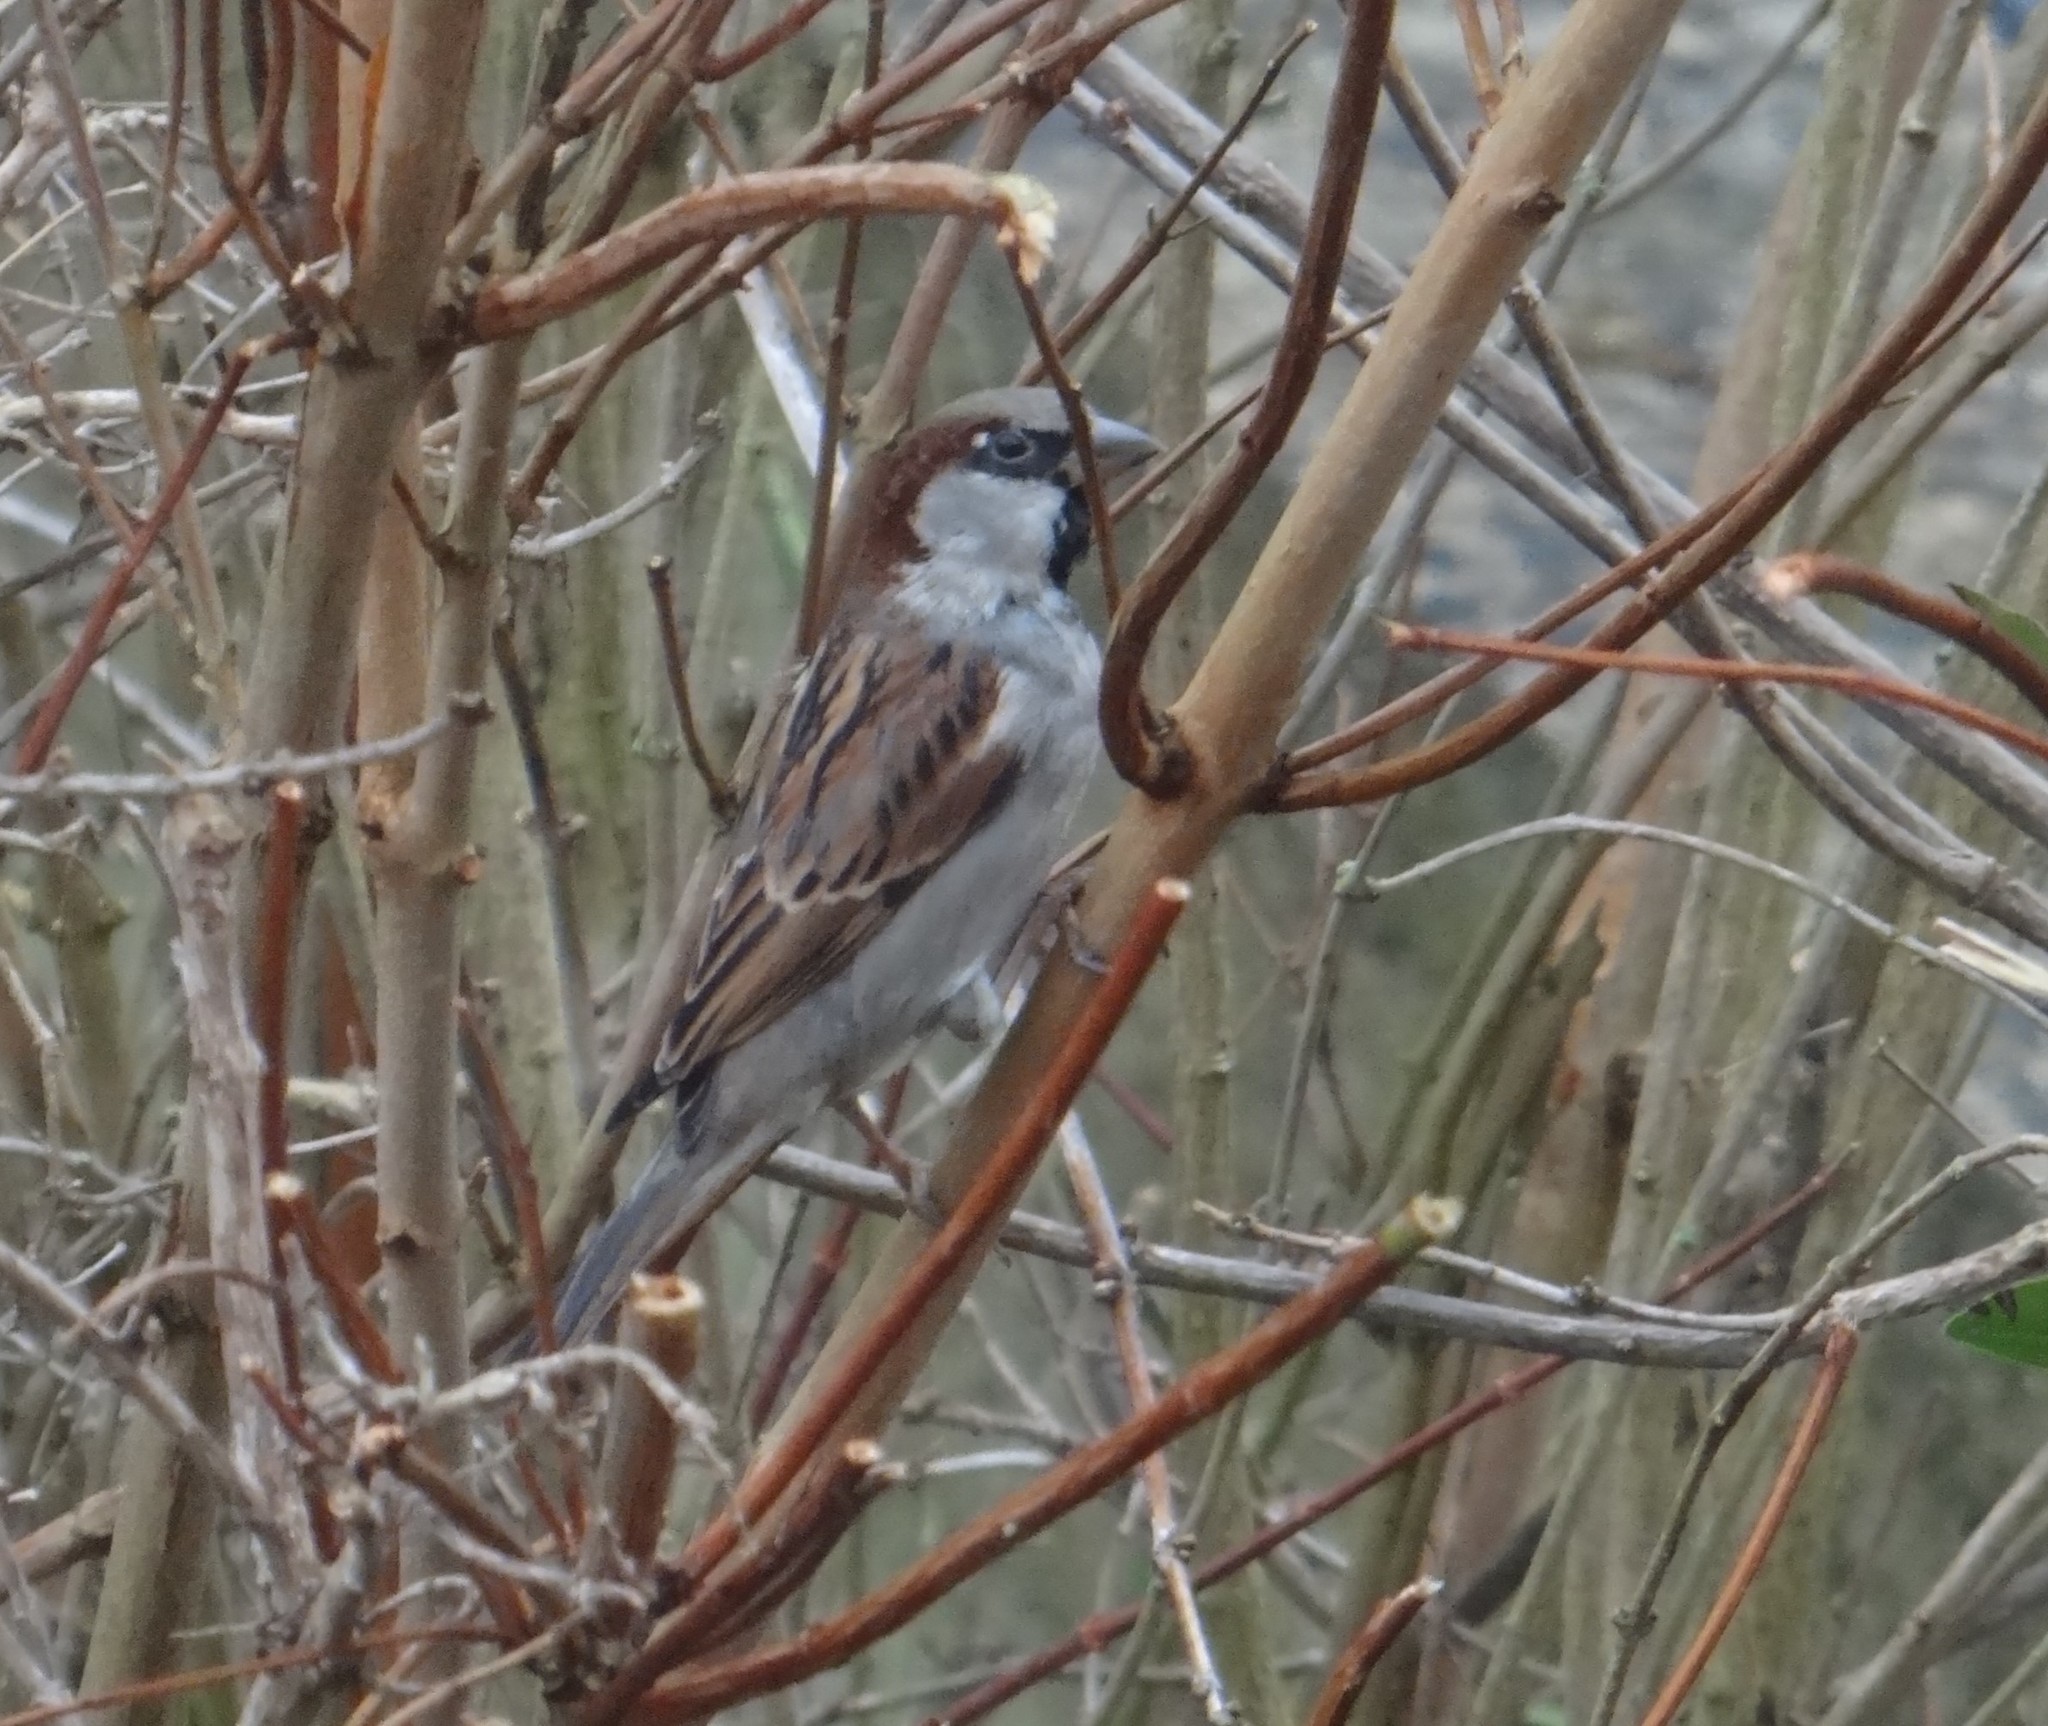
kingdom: Animalia
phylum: Chordata
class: Aves
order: Passeriformes
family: Passeridae
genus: Passer
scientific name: Passer domesticus
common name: House sparrow
